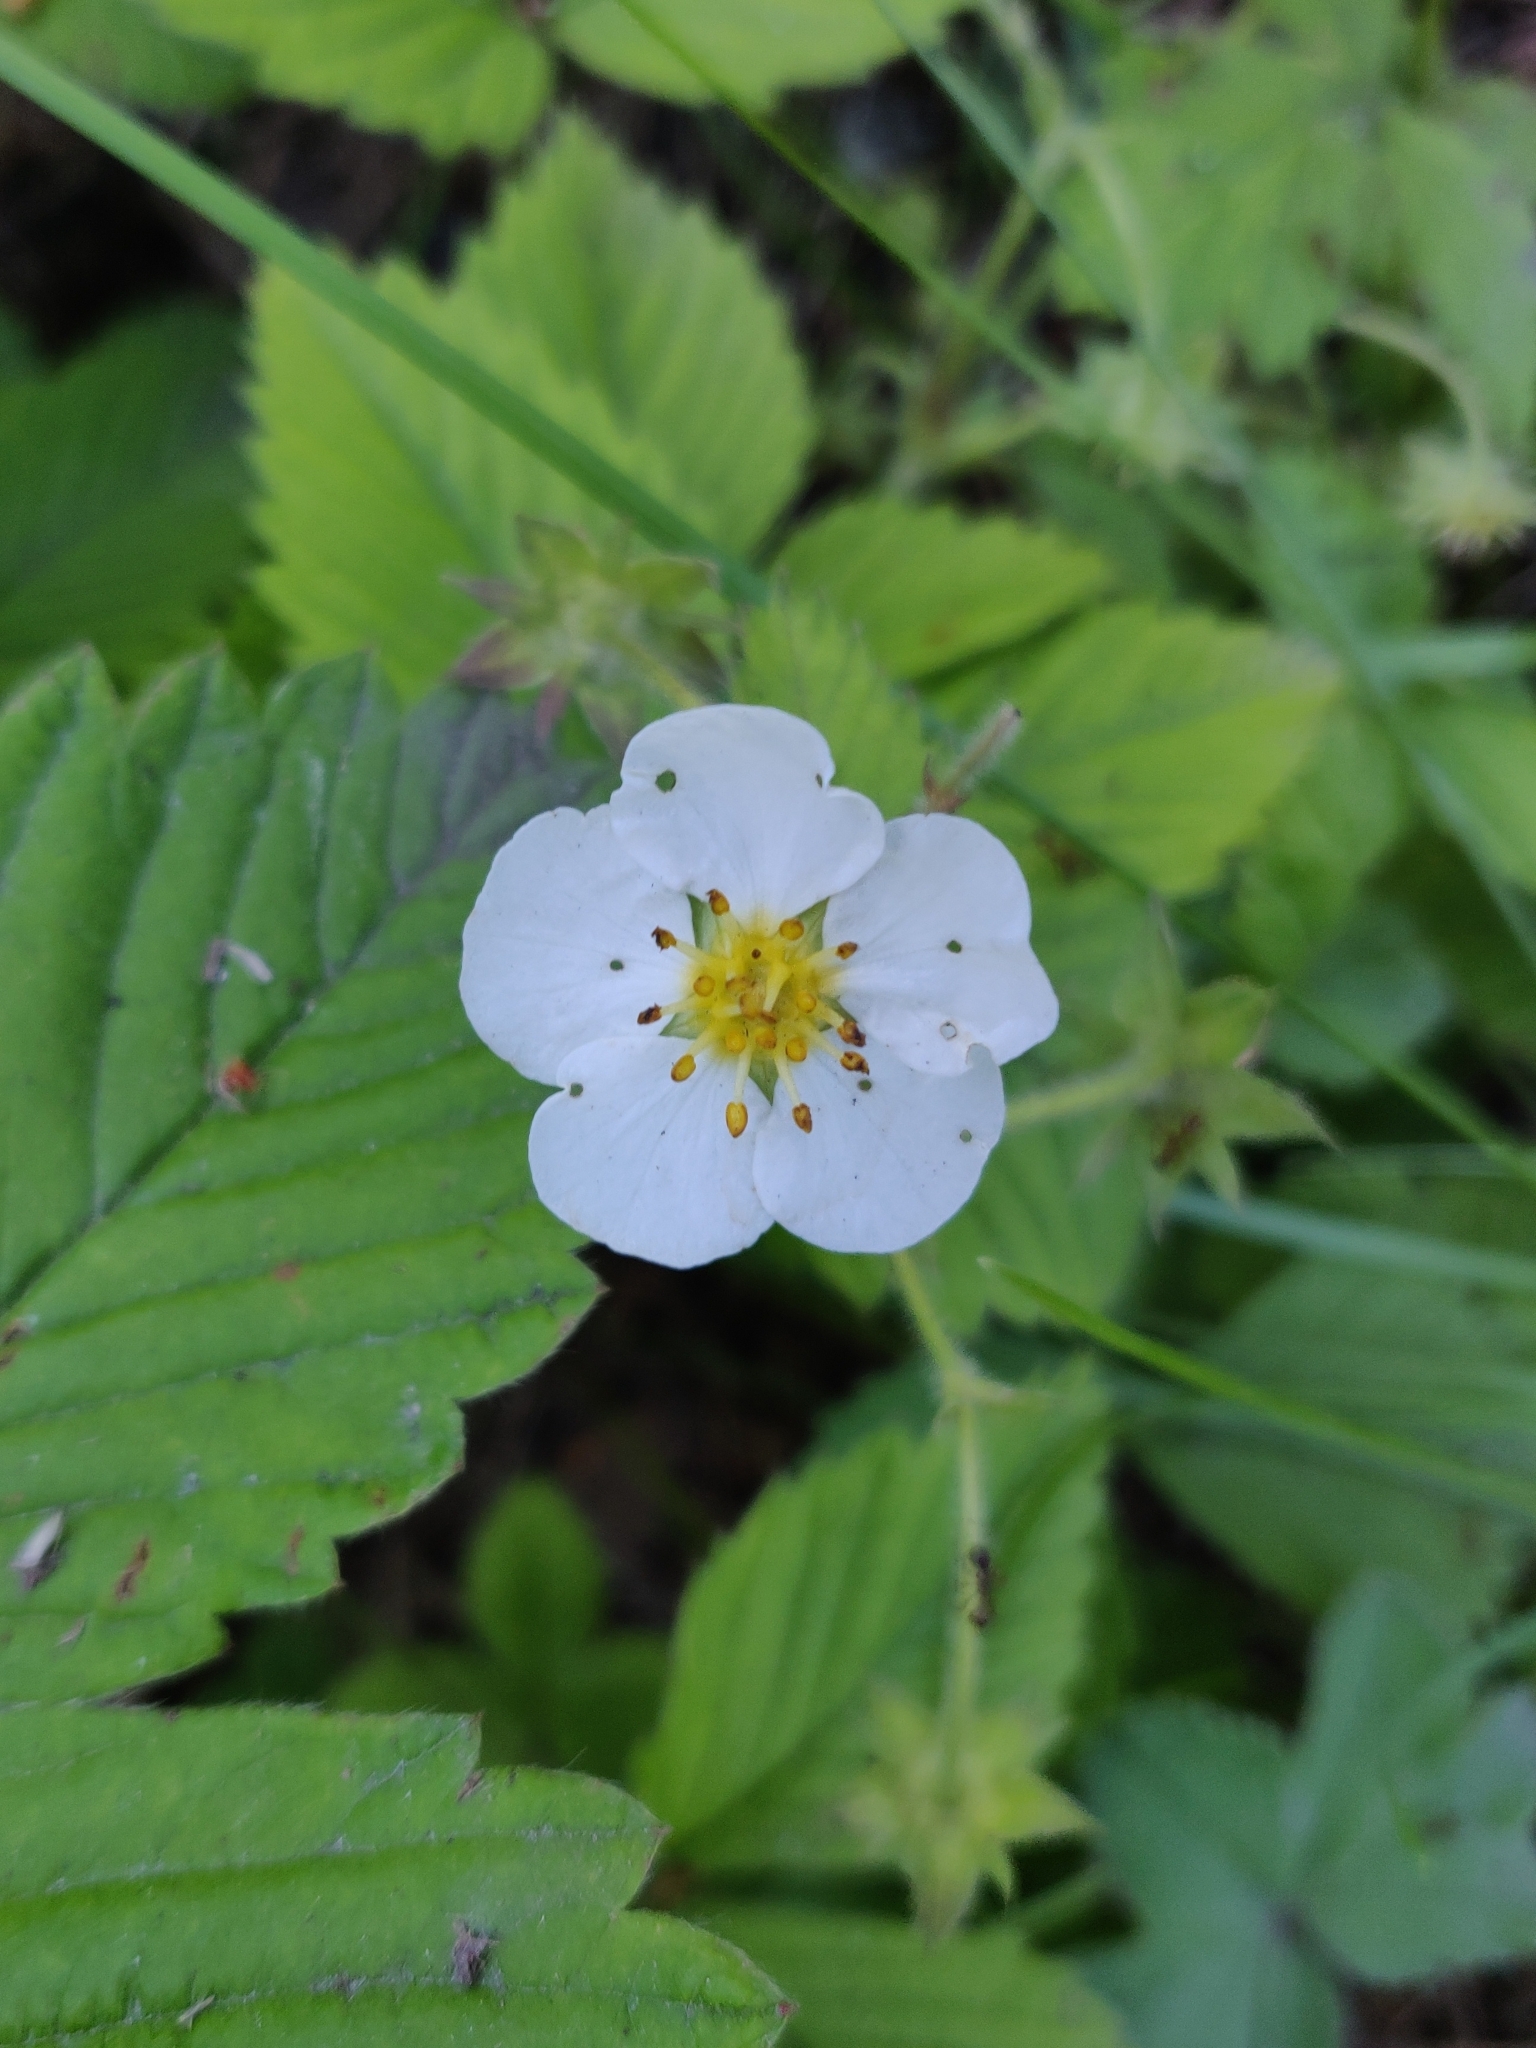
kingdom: Plantae
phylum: Tracheophyta
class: Magnoliopsida
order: Rosales
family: Rosaceae
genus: Fragaria
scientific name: Fragaria vesca
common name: Wild strawberry
